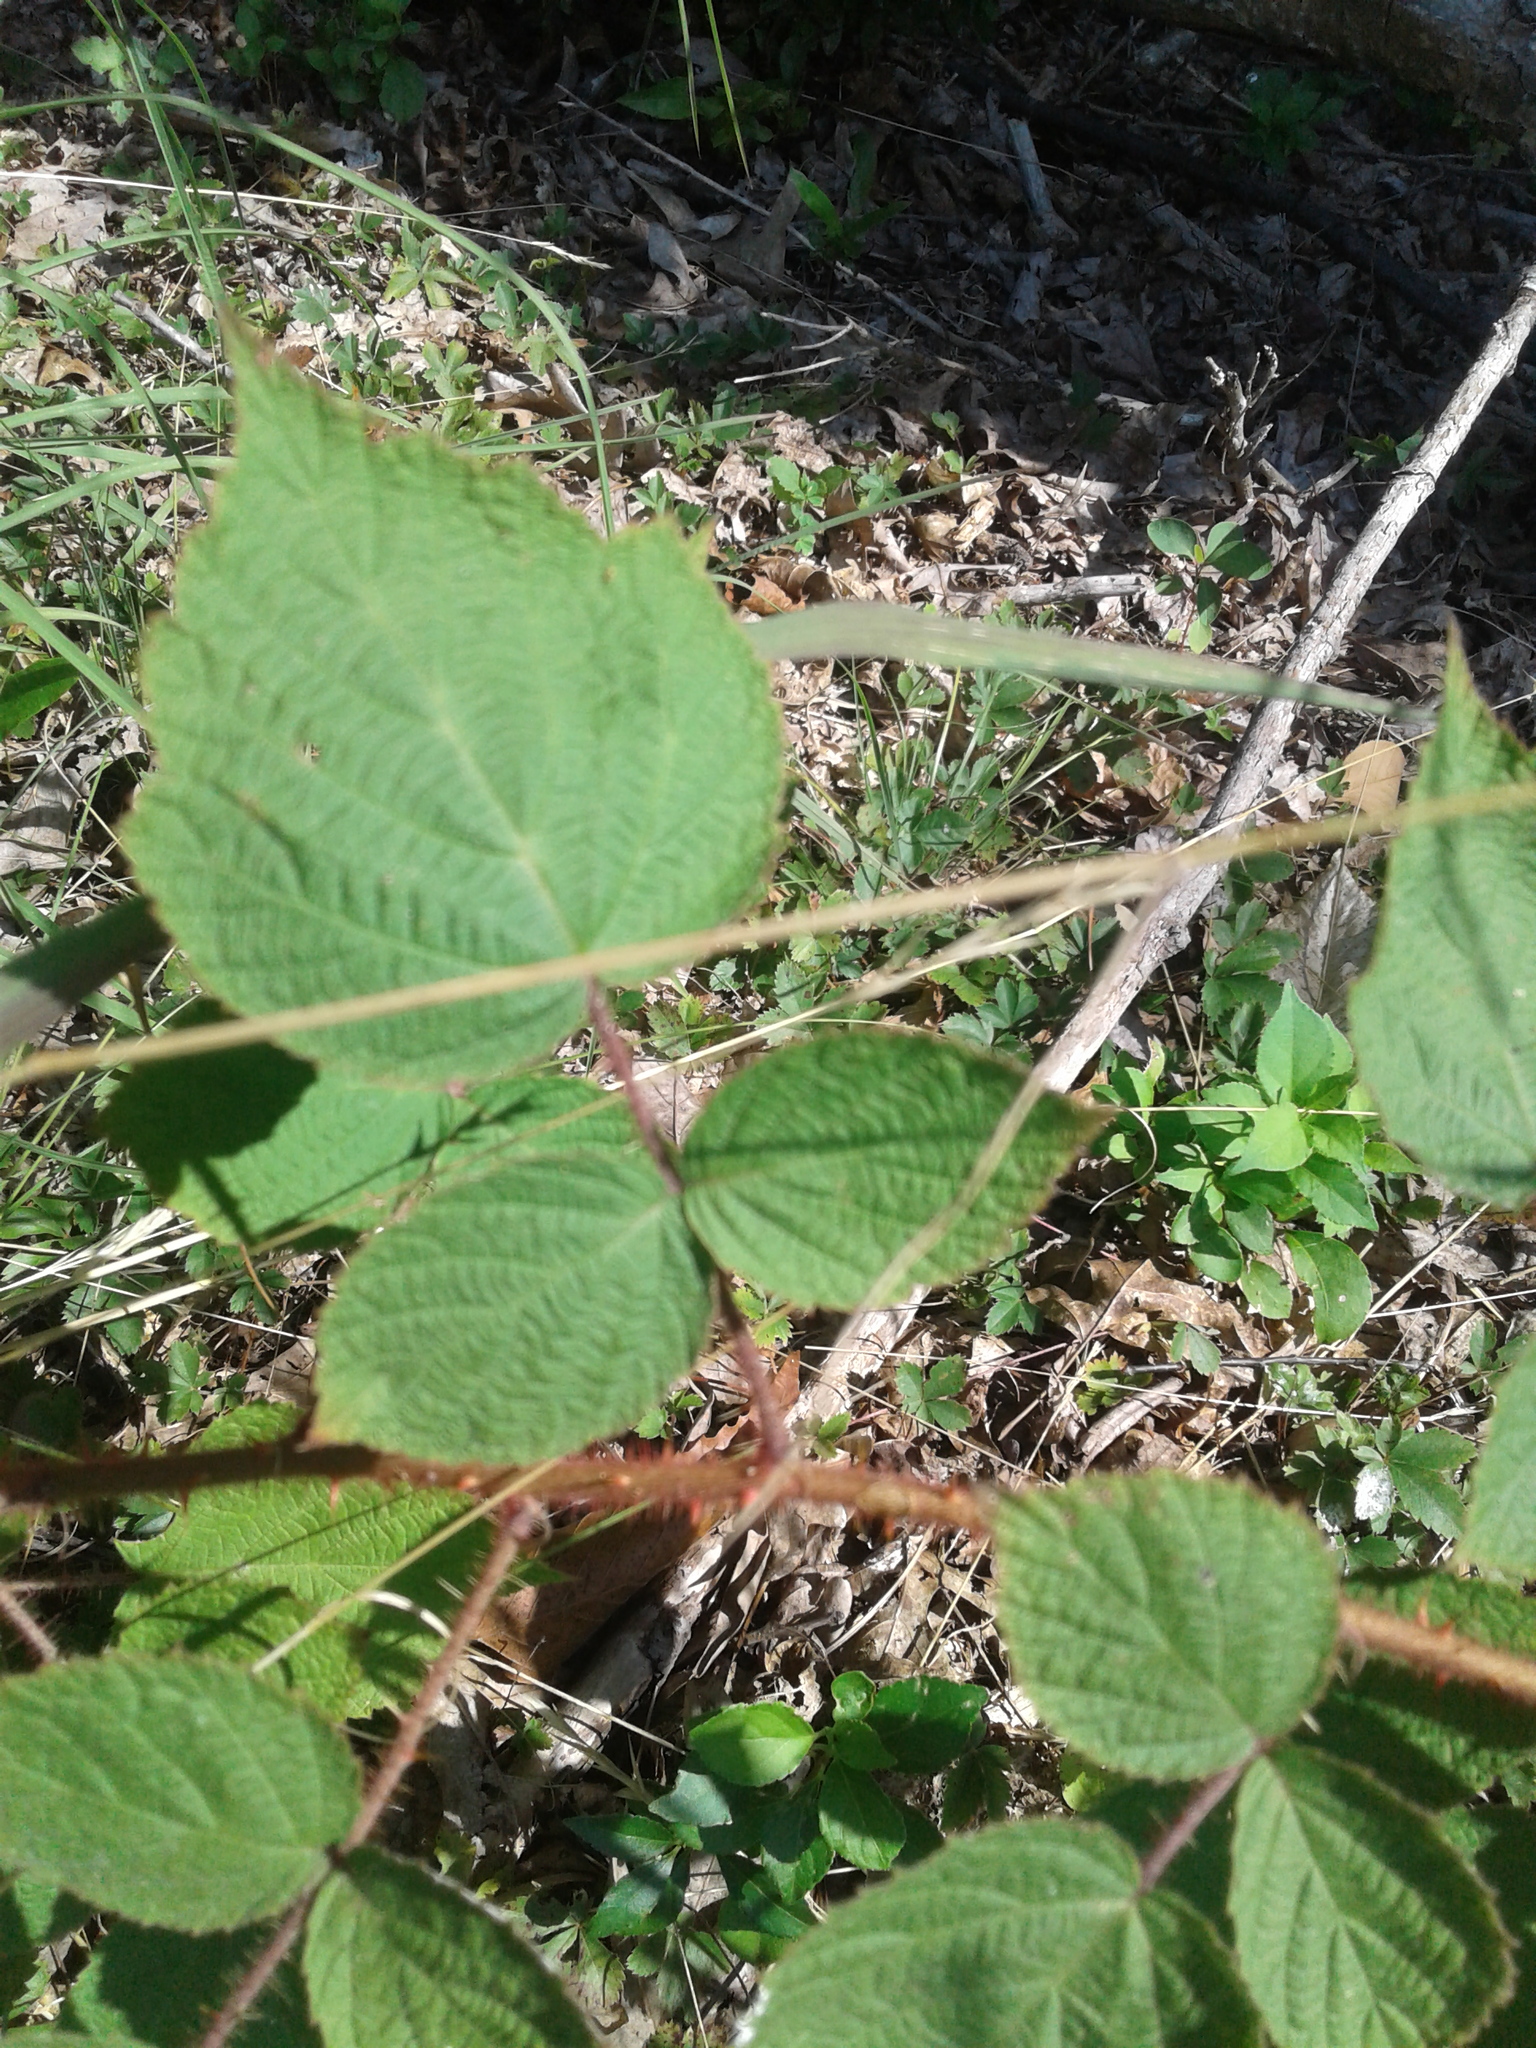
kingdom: Plantae
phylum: Tracheophyta
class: Magnoliopsida
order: Rosales
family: Rosaceae
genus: Rubus
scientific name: Rubus phoenicolasius
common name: Japanese wineberry
